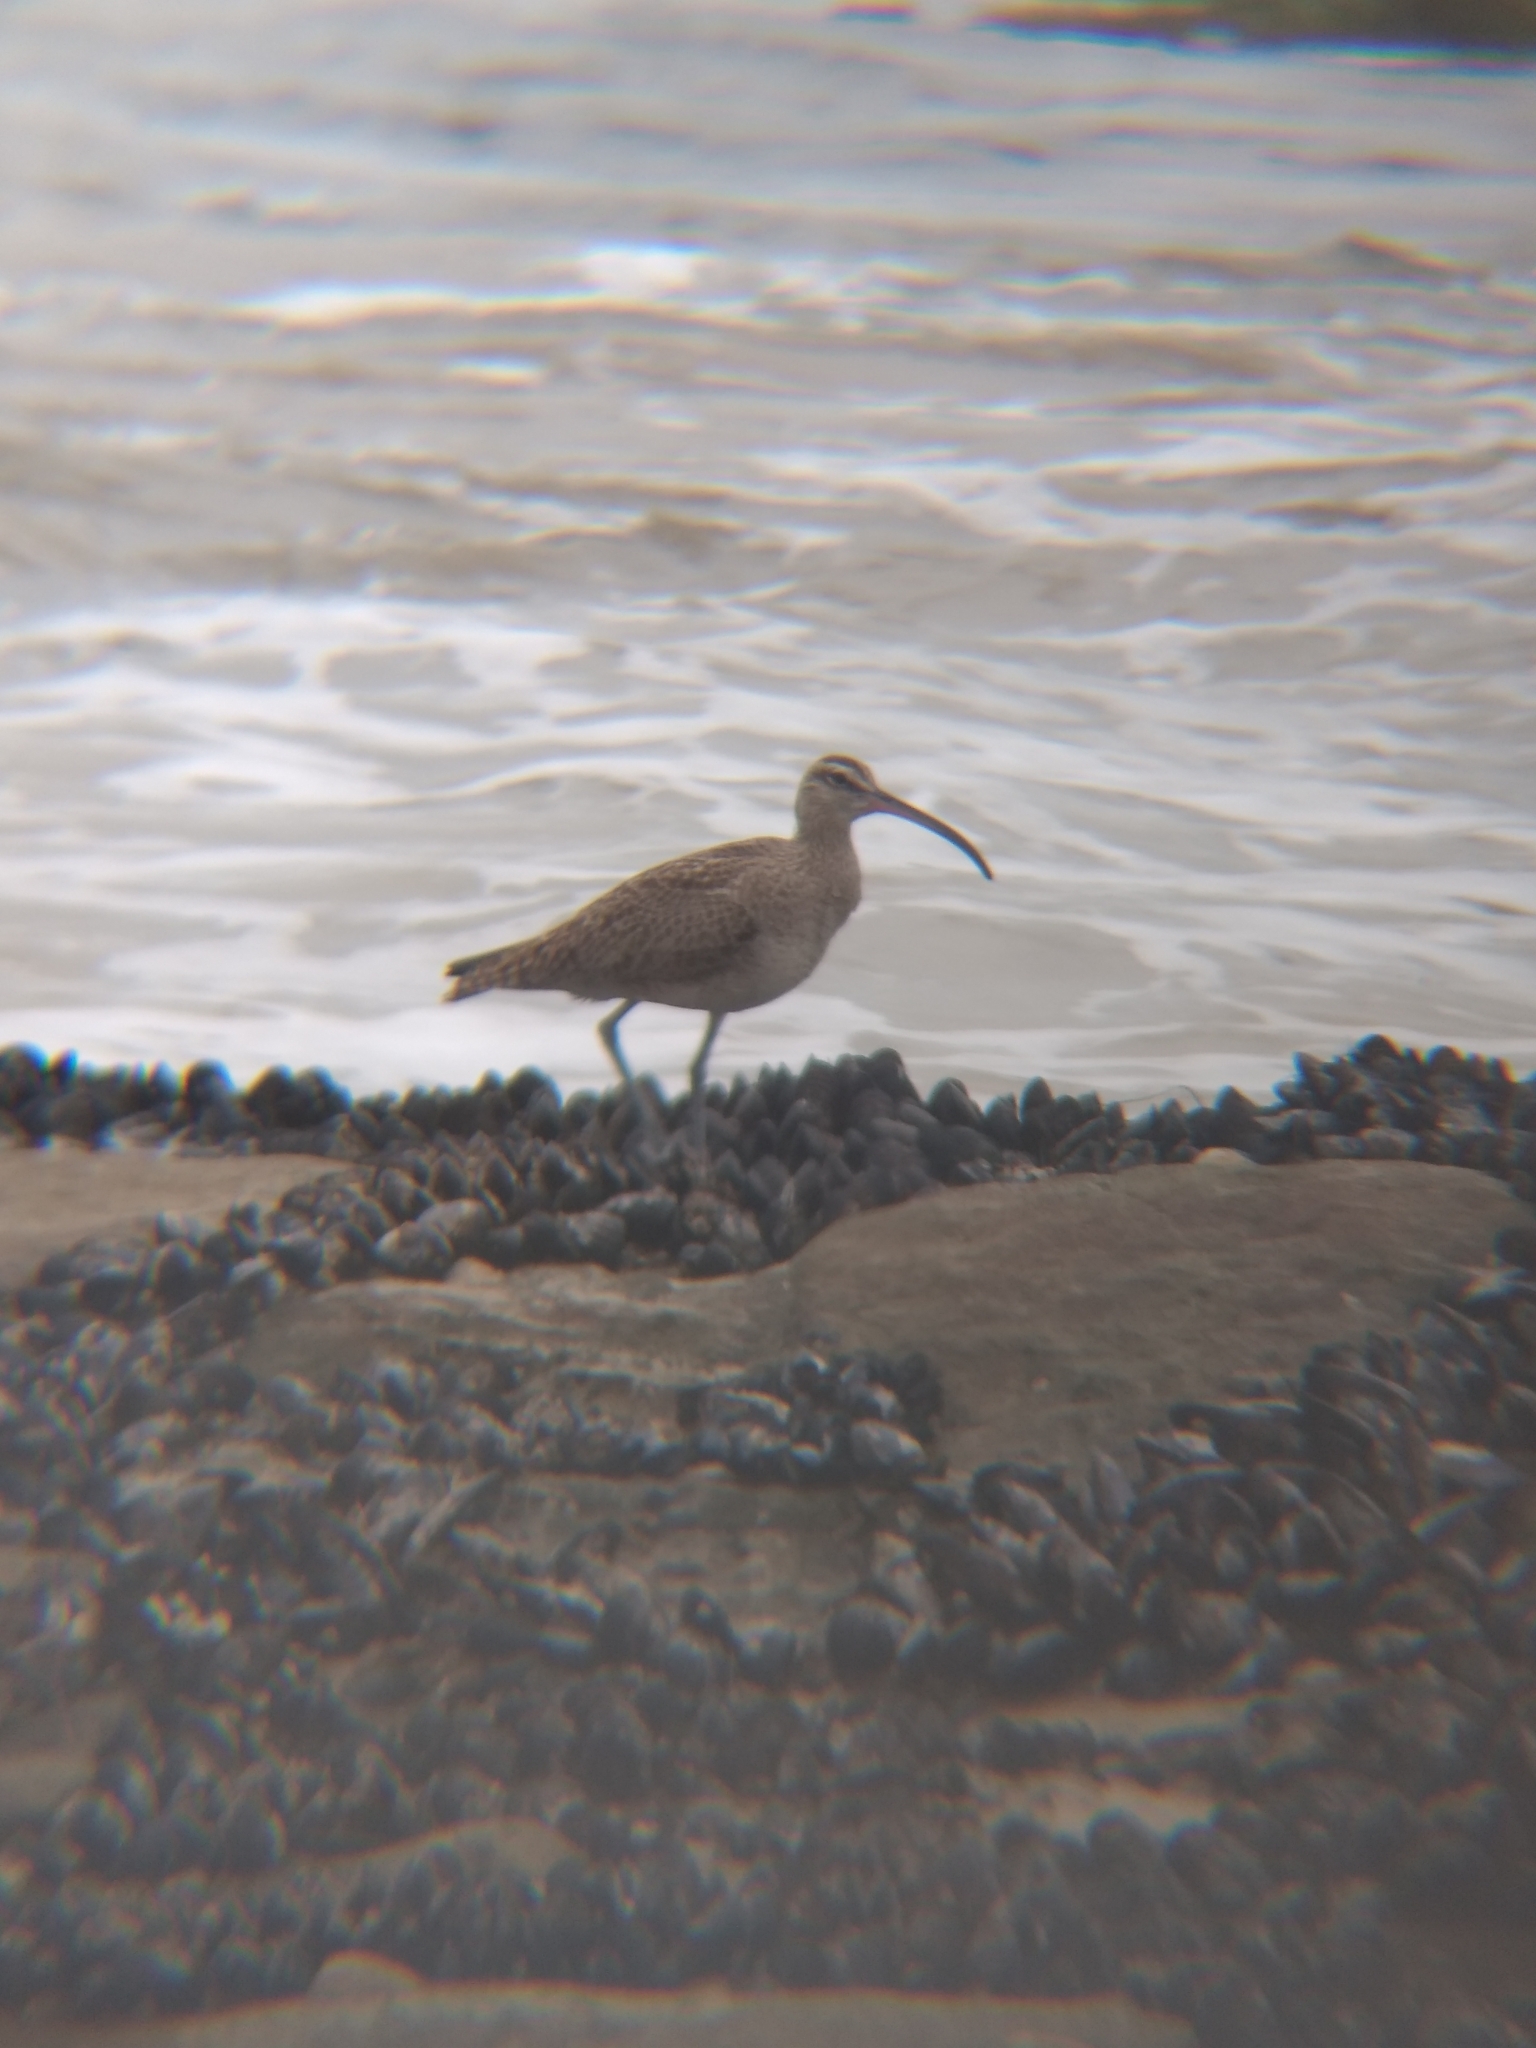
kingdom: Animalia
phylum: Chordata
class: Aves
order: Charadriiformes
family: Scolopacidae
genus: Numenius
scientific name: Numenius phaeopus
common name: Whimbrel
